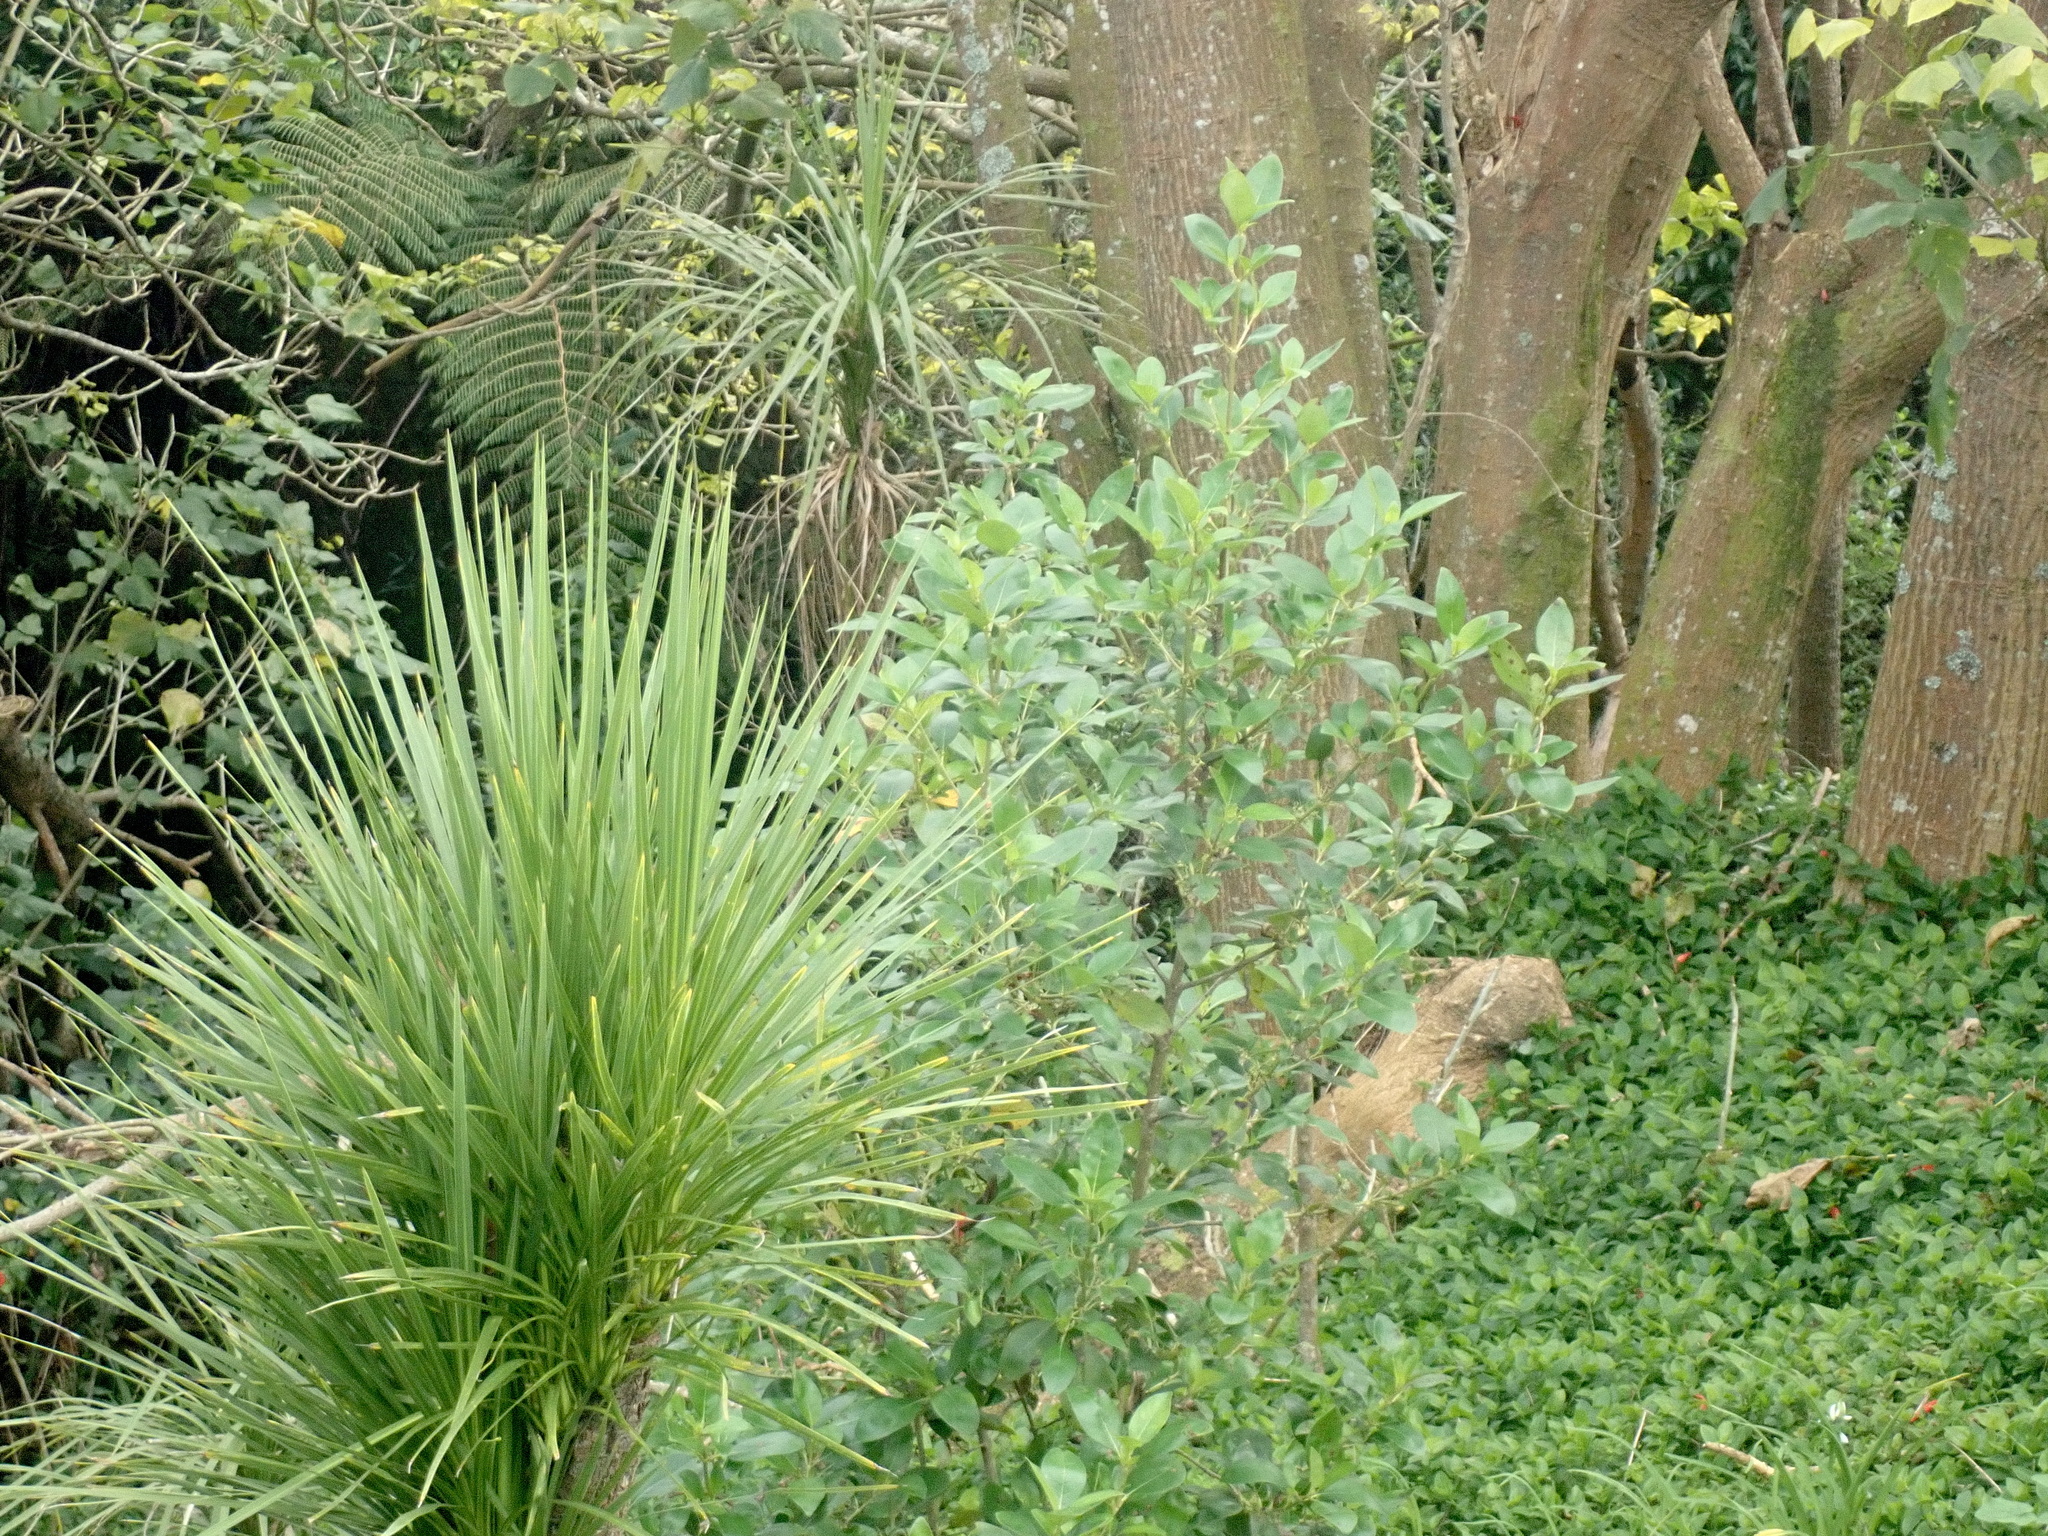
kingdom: Plantae
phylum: Tracheophyta
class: Magnoliopsida
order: Gentianales
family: Rubiaceae
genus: Coprosma
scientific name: Coprosma robusta
